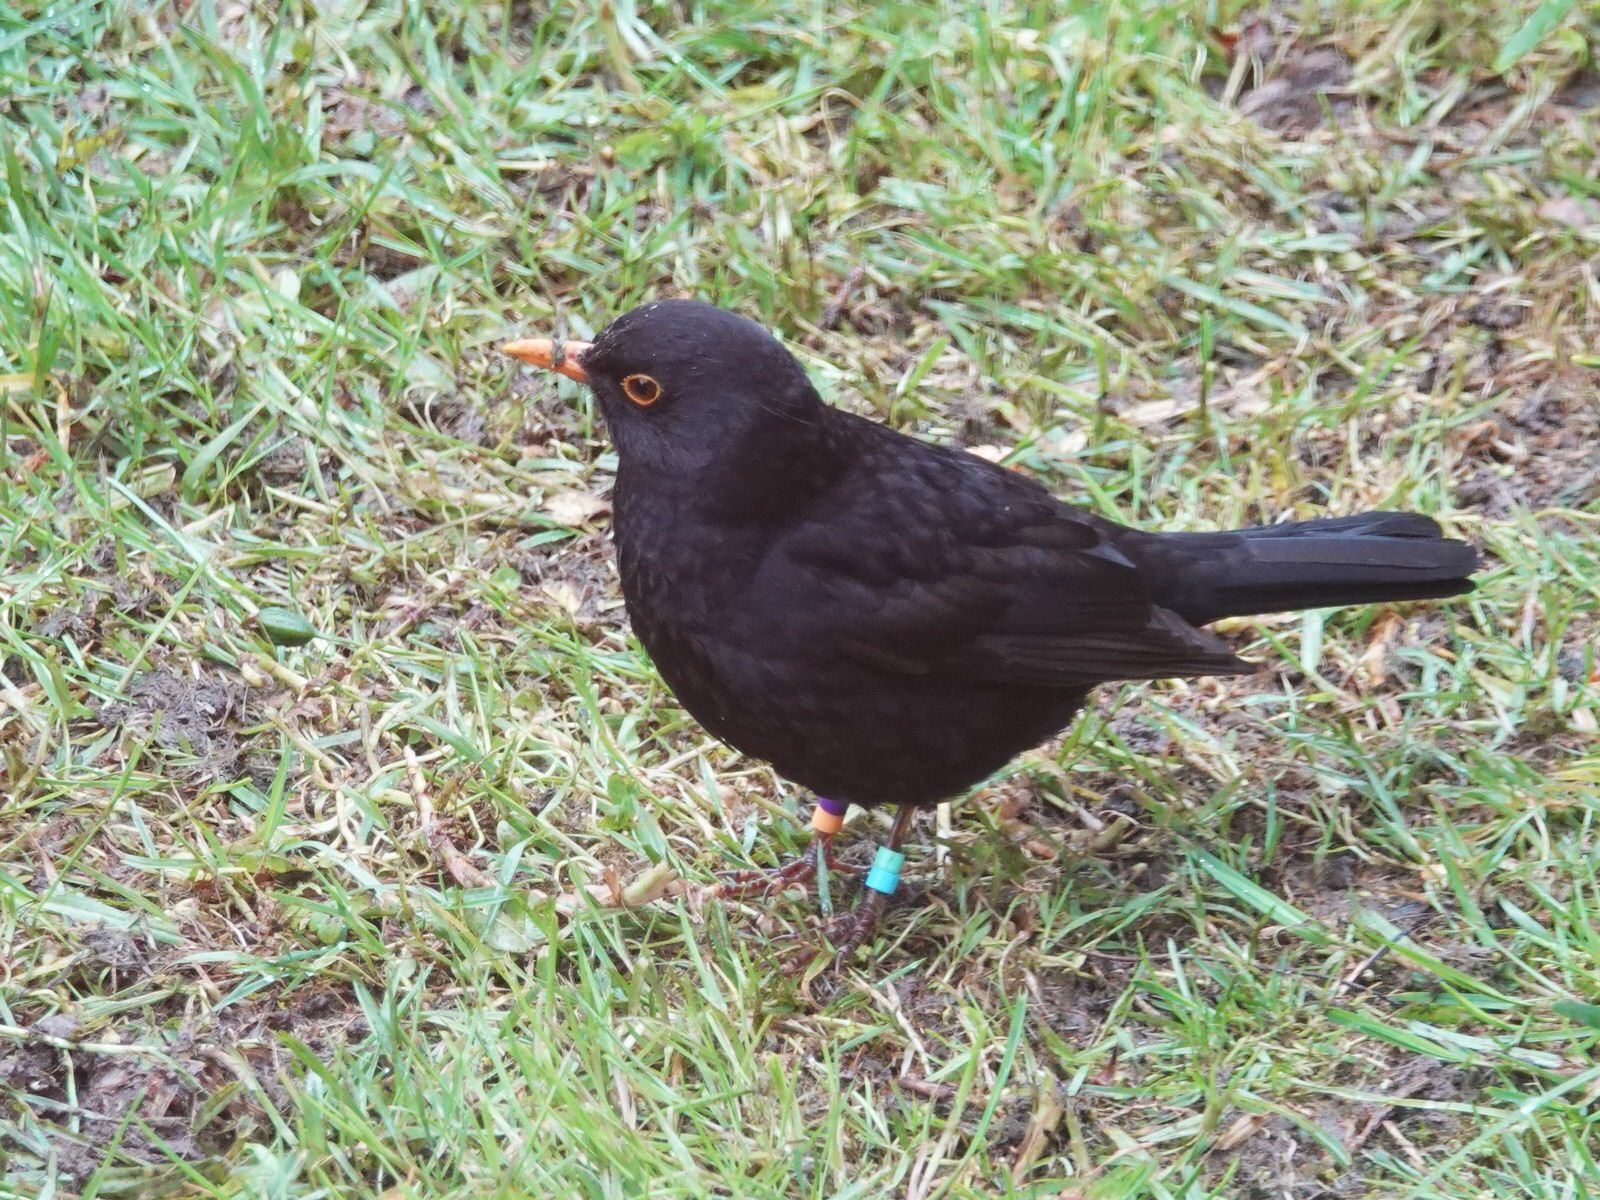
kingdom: Animalia
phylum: Chordata
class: Aves
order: Passeriformes
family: Turdidae
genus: Turdus
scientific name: Turdus merula
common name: Common blackbird
